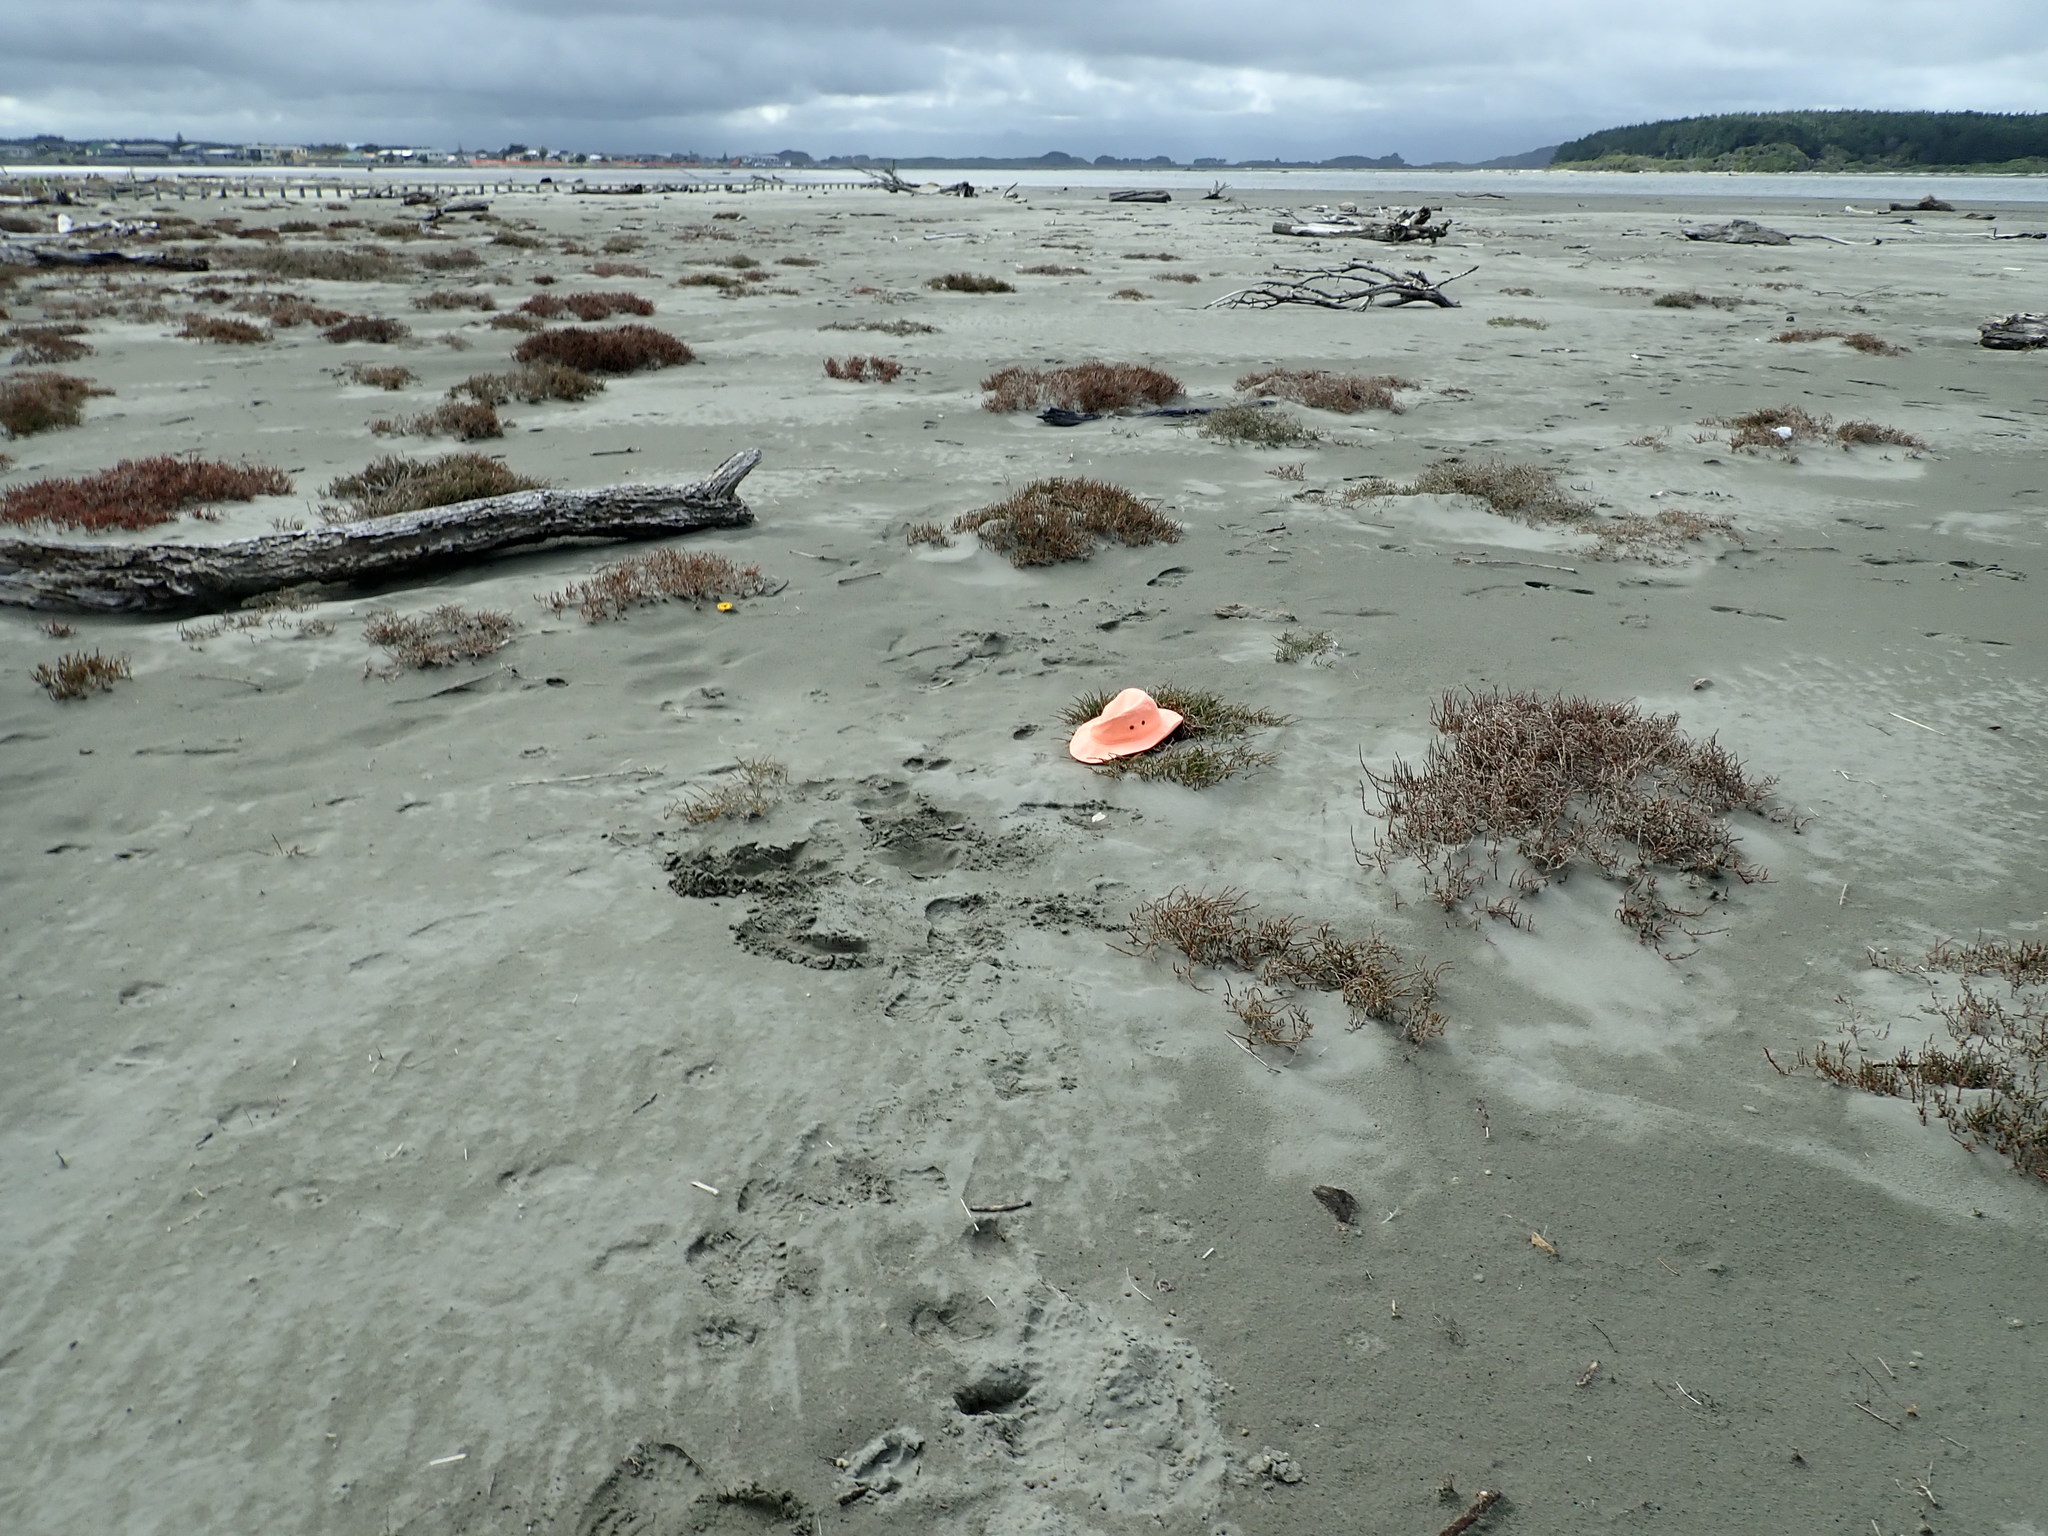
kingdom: Plantae
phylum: Tracheophyta
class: Magnoliopsida
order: Caryophyllales
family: Amaranthaceae
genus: Salicornia
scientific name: Salicornia quinqueflora
